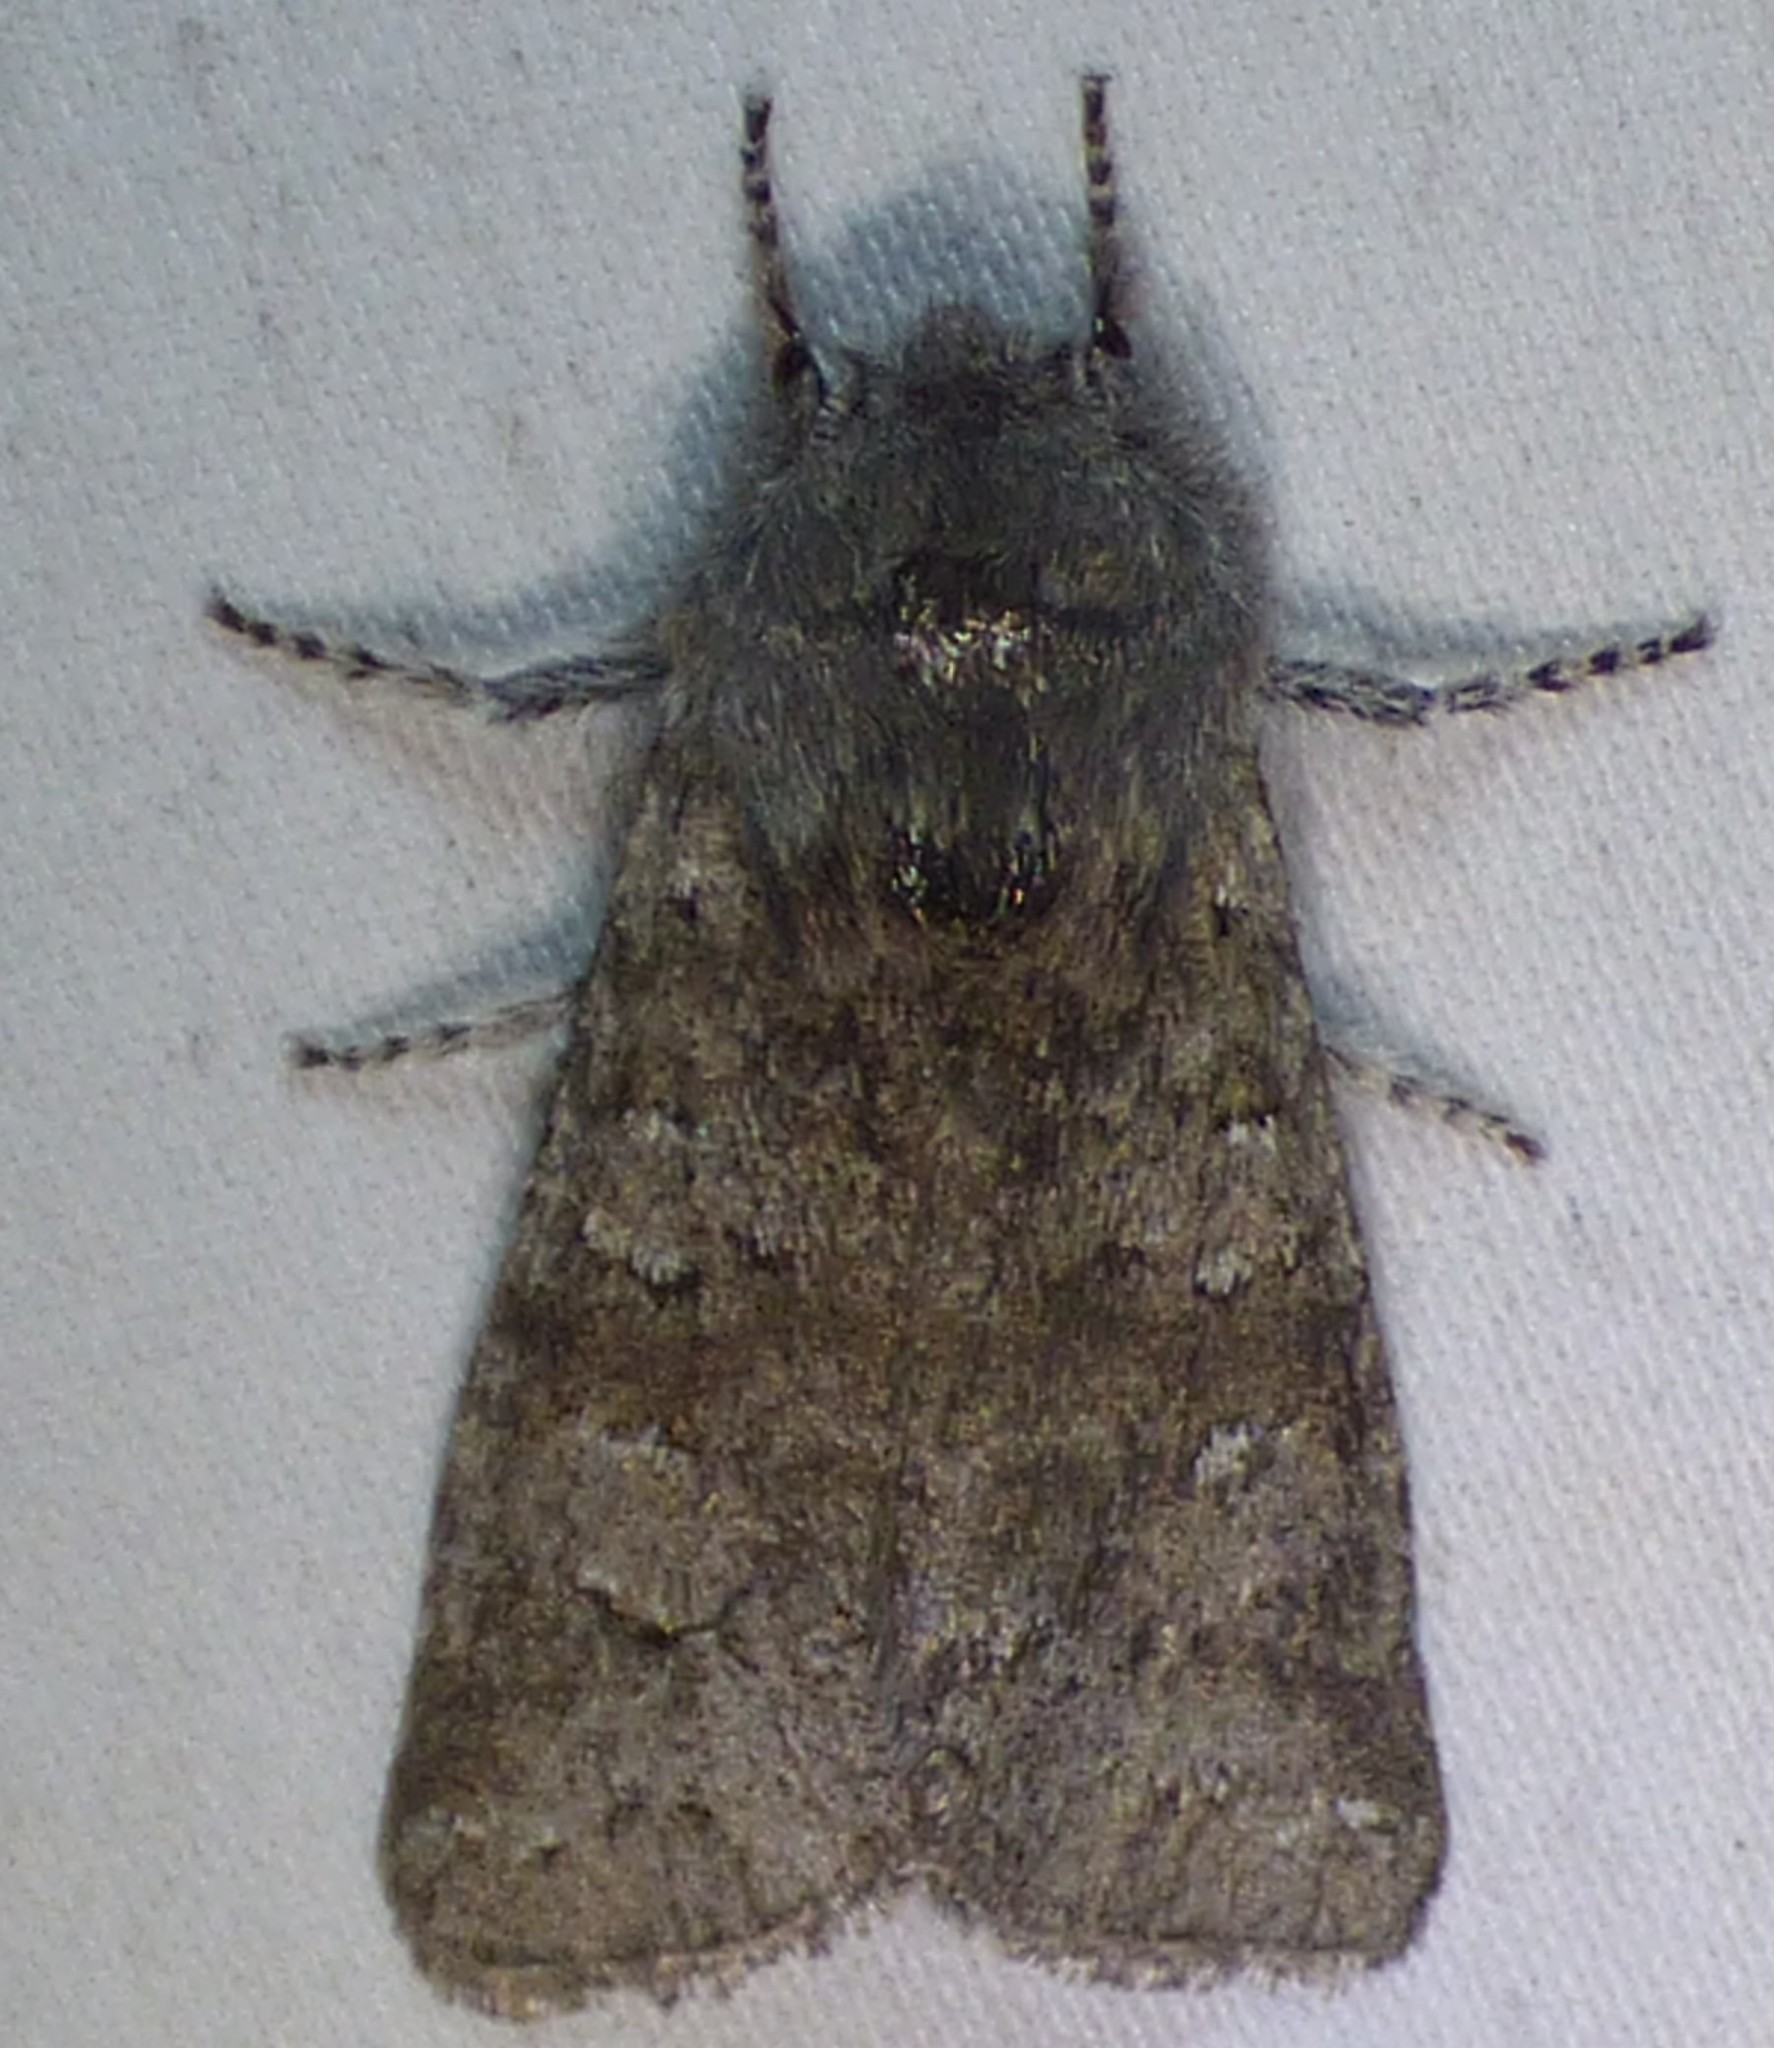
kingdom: Animalia
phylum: Arthropoda
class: Insecta
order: Lepidoptera
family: Noctuidae
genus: Psaphida
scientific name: Psaphida rolandi
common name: Roland's sallow
